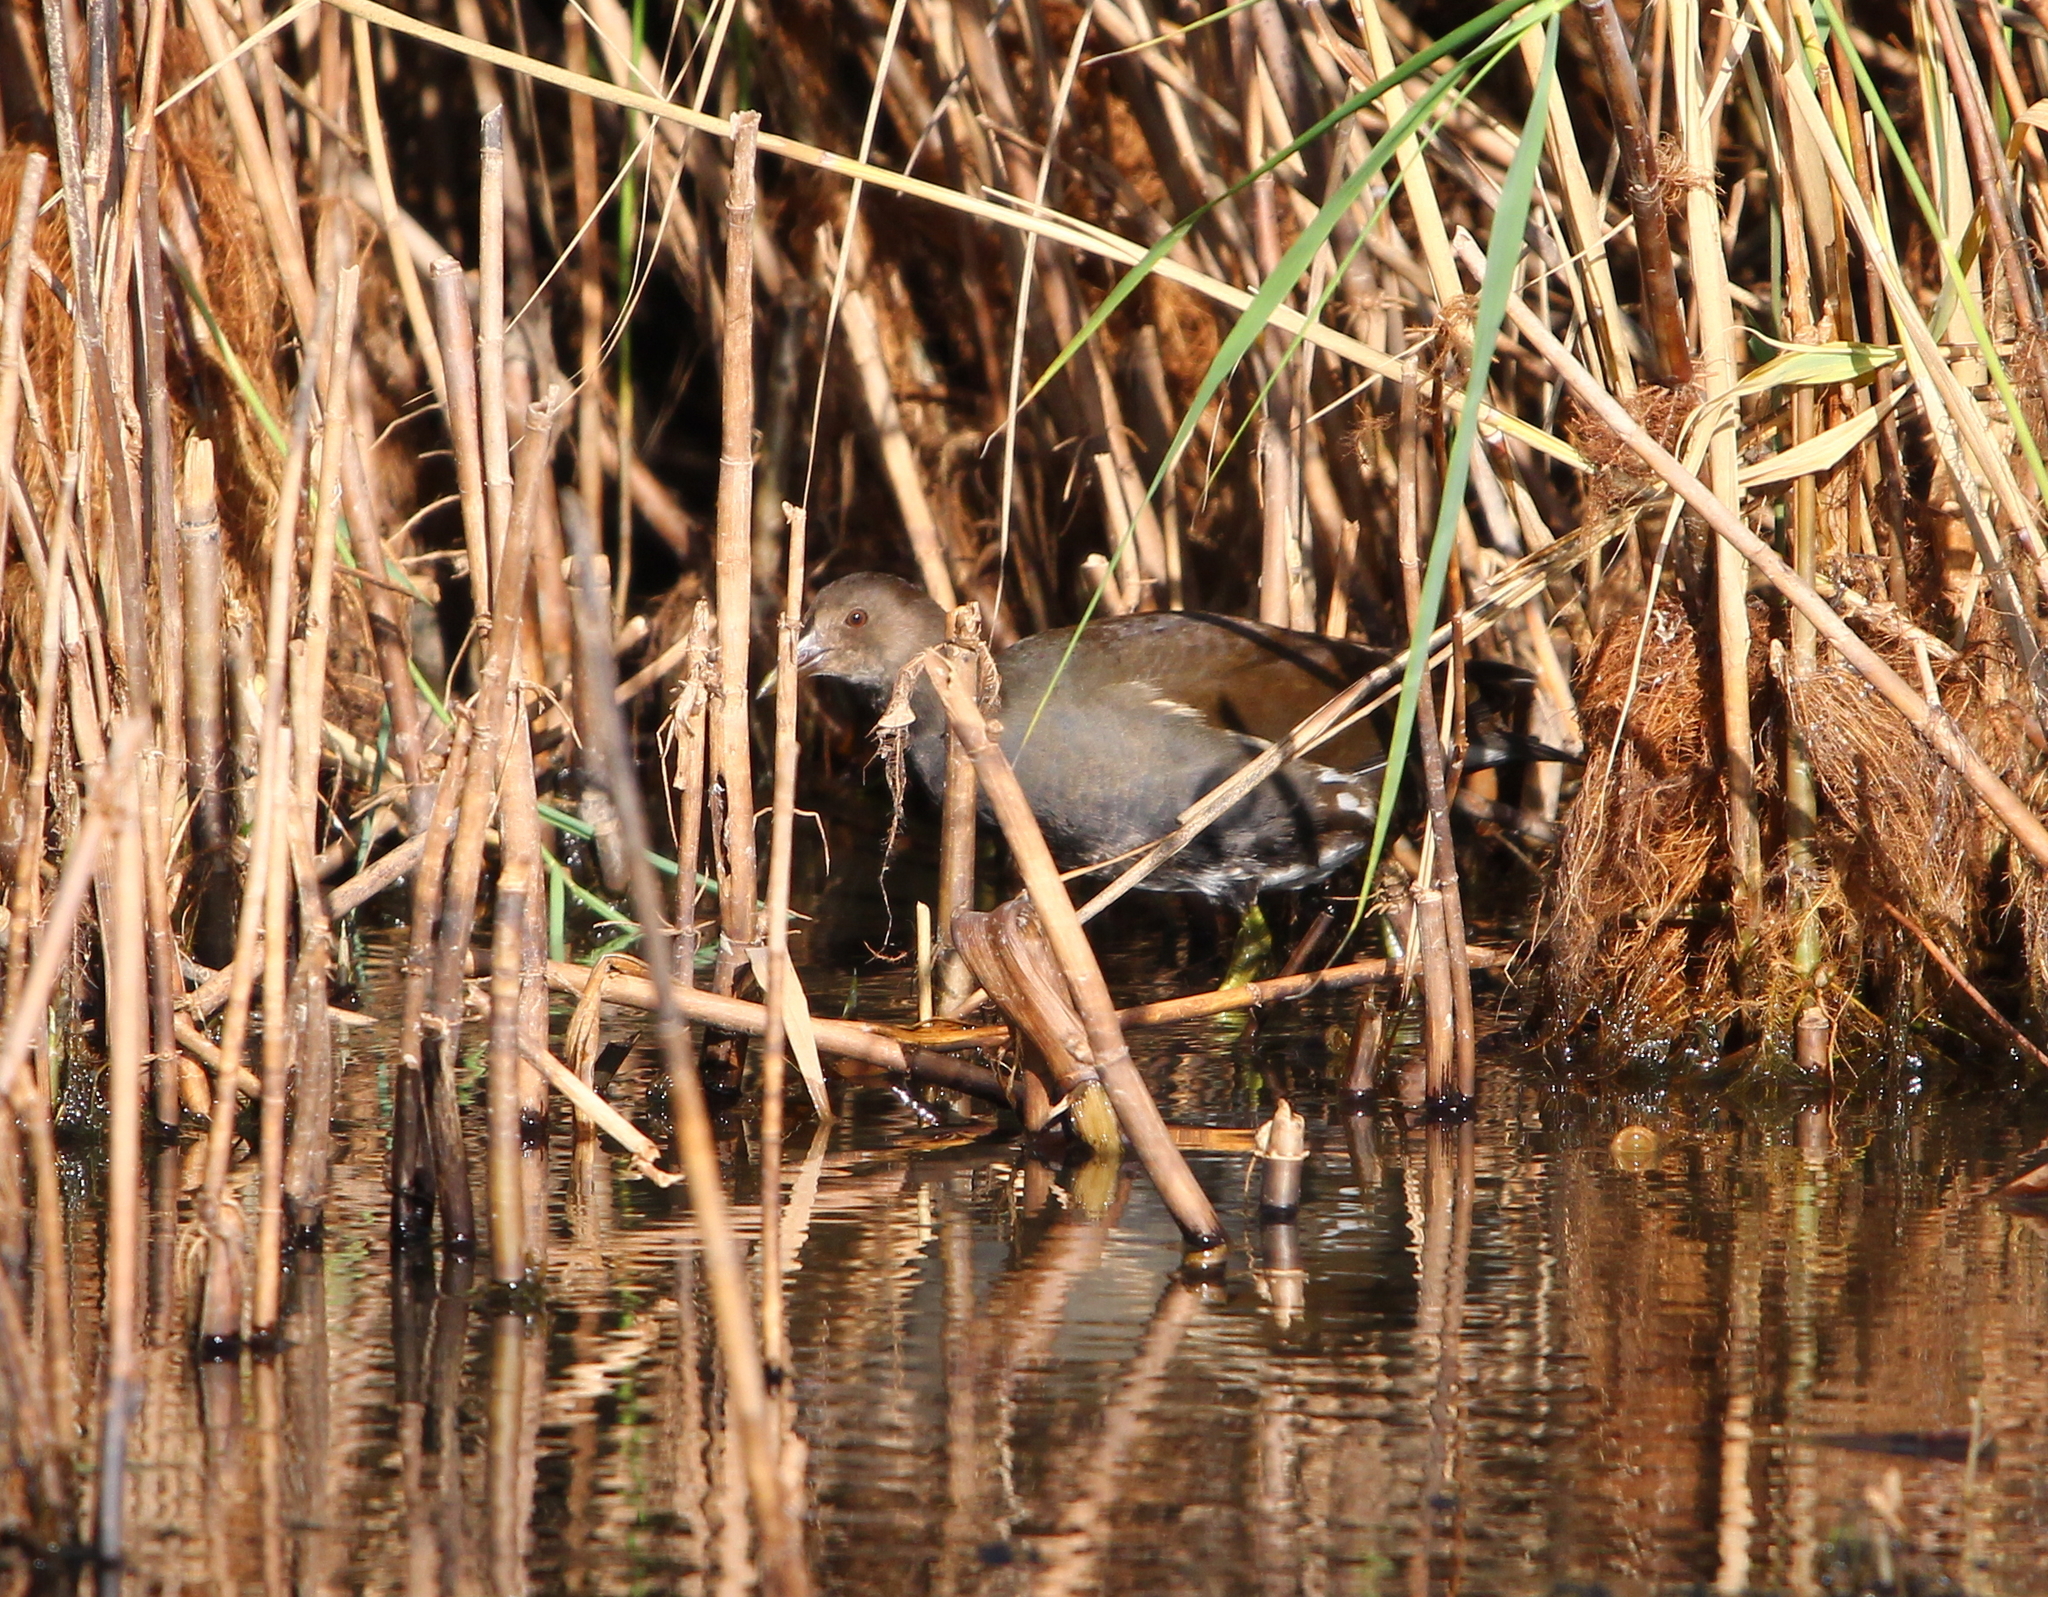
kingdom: Animalia
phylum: Chordata
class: Aves
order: Gruiformes
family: Rallidae
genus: Gallinula
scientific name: Gallinula chloropus
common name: Common moorhen
